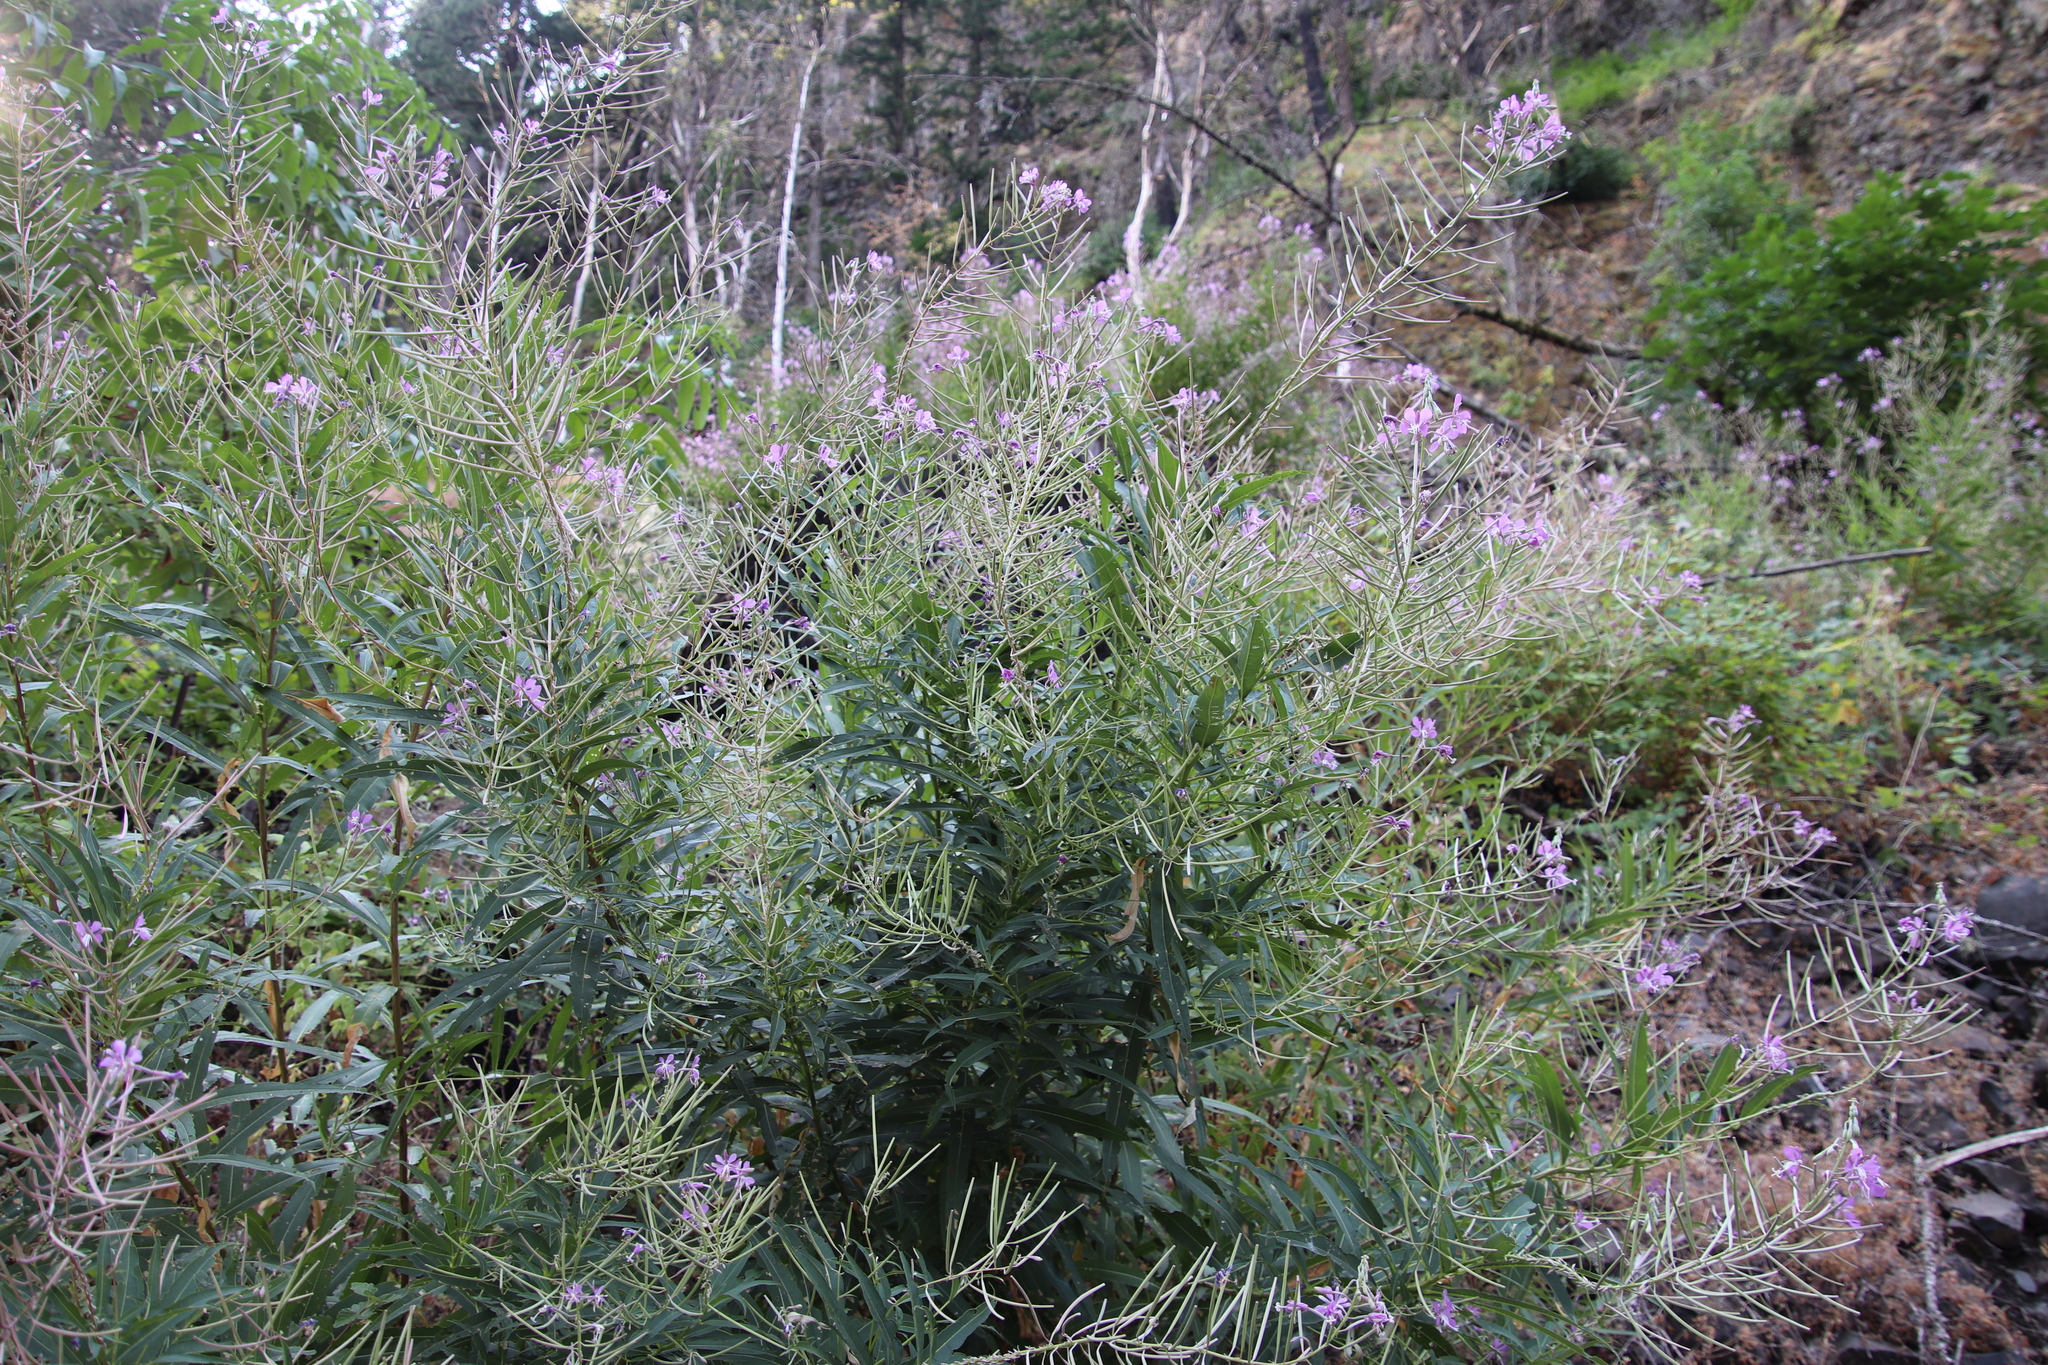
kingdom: Plantae
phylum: Tracheophyta
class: Magnoliopsida
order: Myrtales
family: Onagraceae
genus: Chamaenerion
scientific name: Chamaenerion angustifolium
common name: Fireweed
